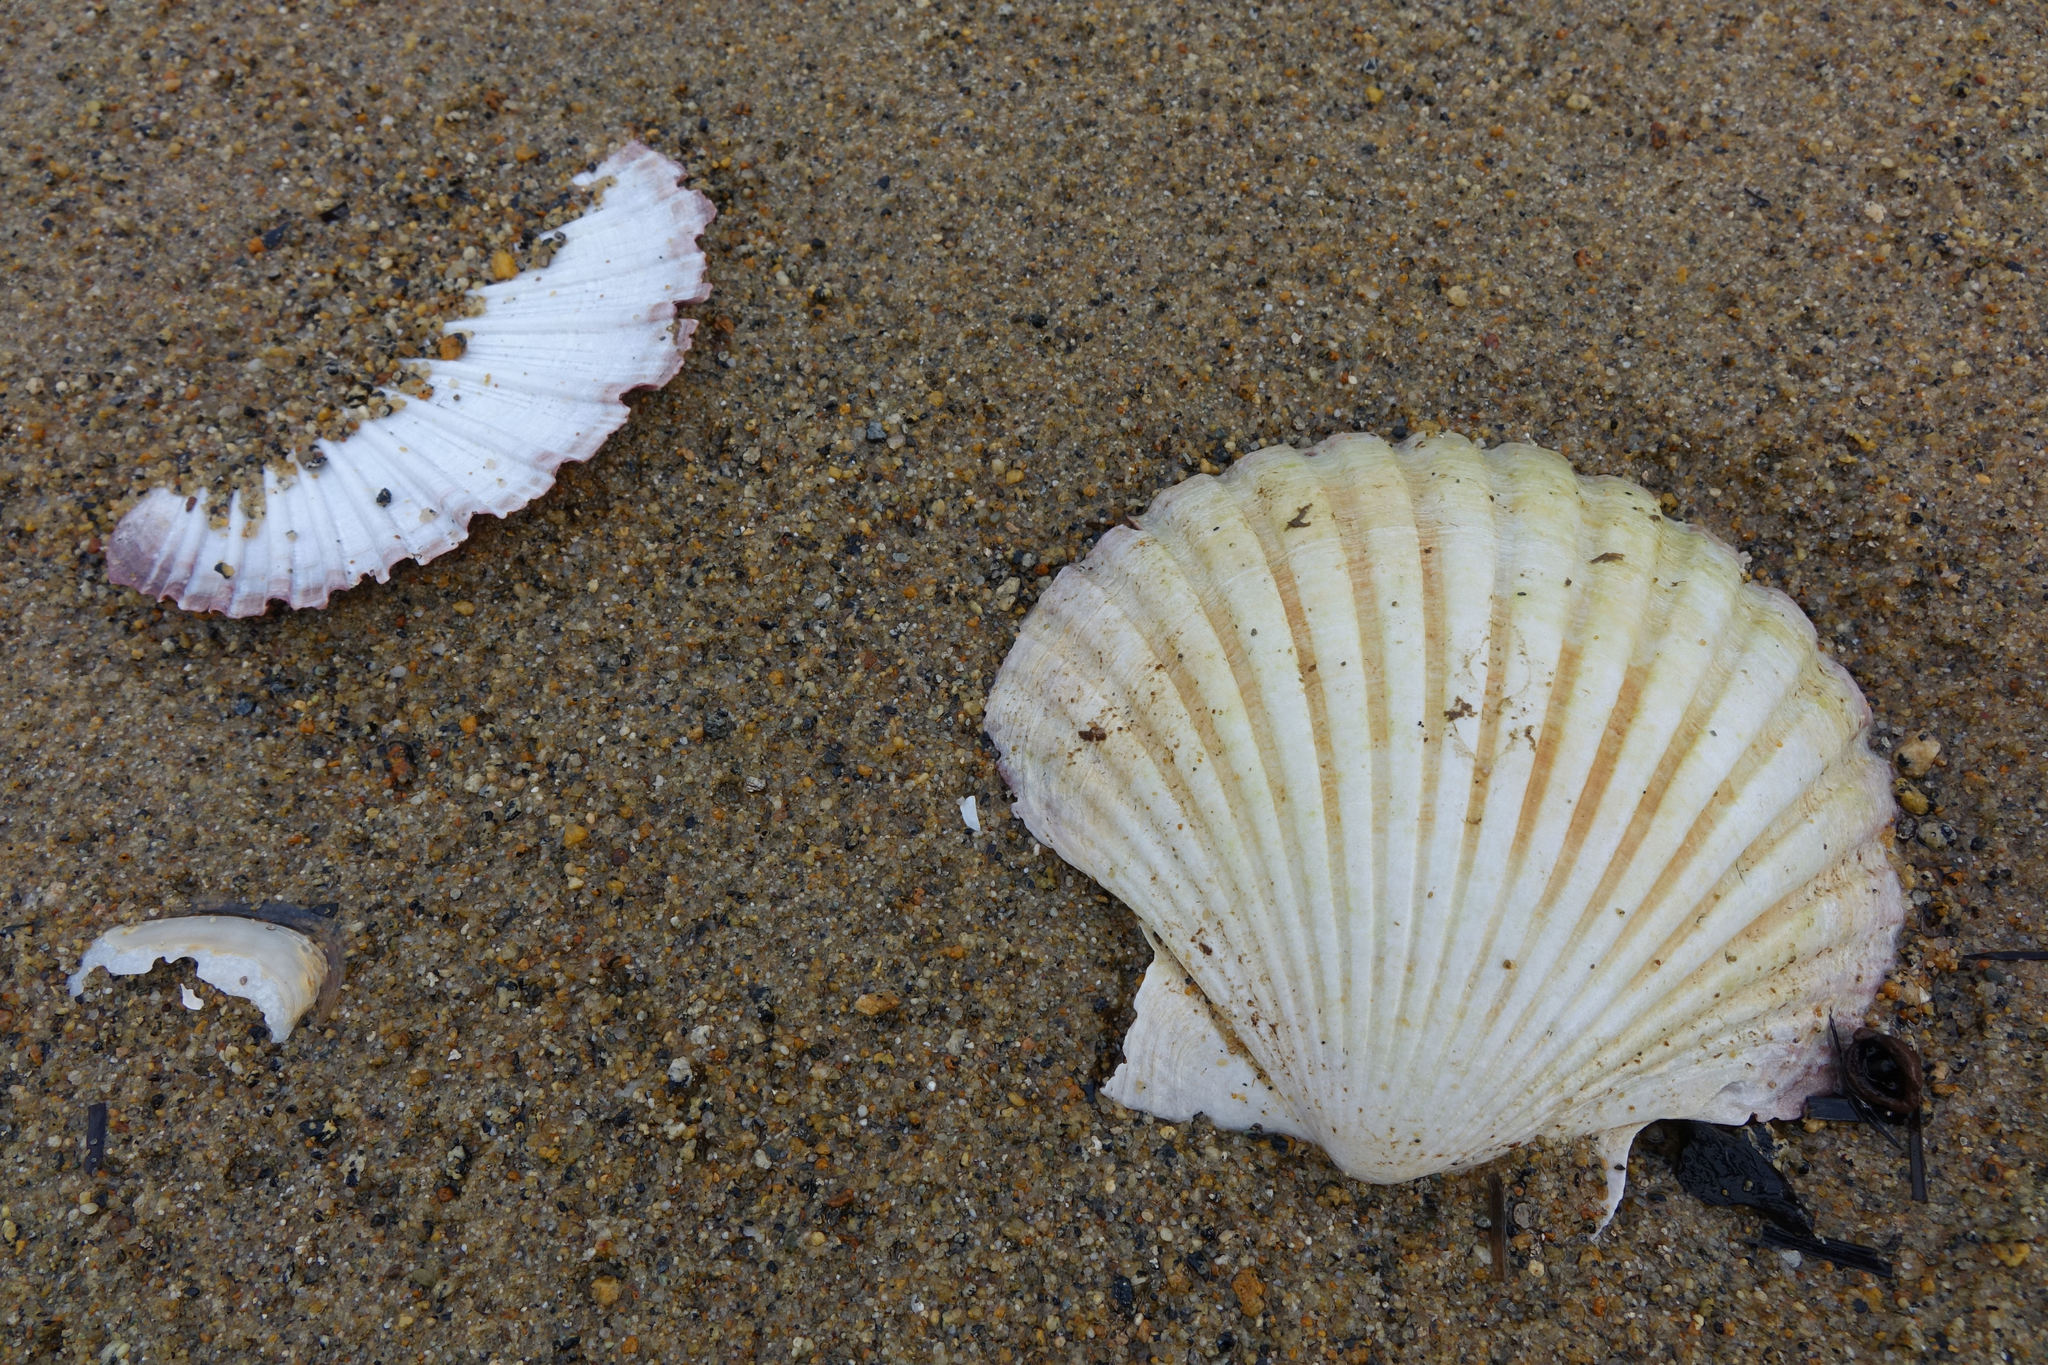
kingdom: Animalia
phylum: Mollusca
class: Bivalvia
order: Pectinida
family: Pectinidae
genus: Pecten
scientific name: Pecten novaezelandiae
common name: New zealand scallop
